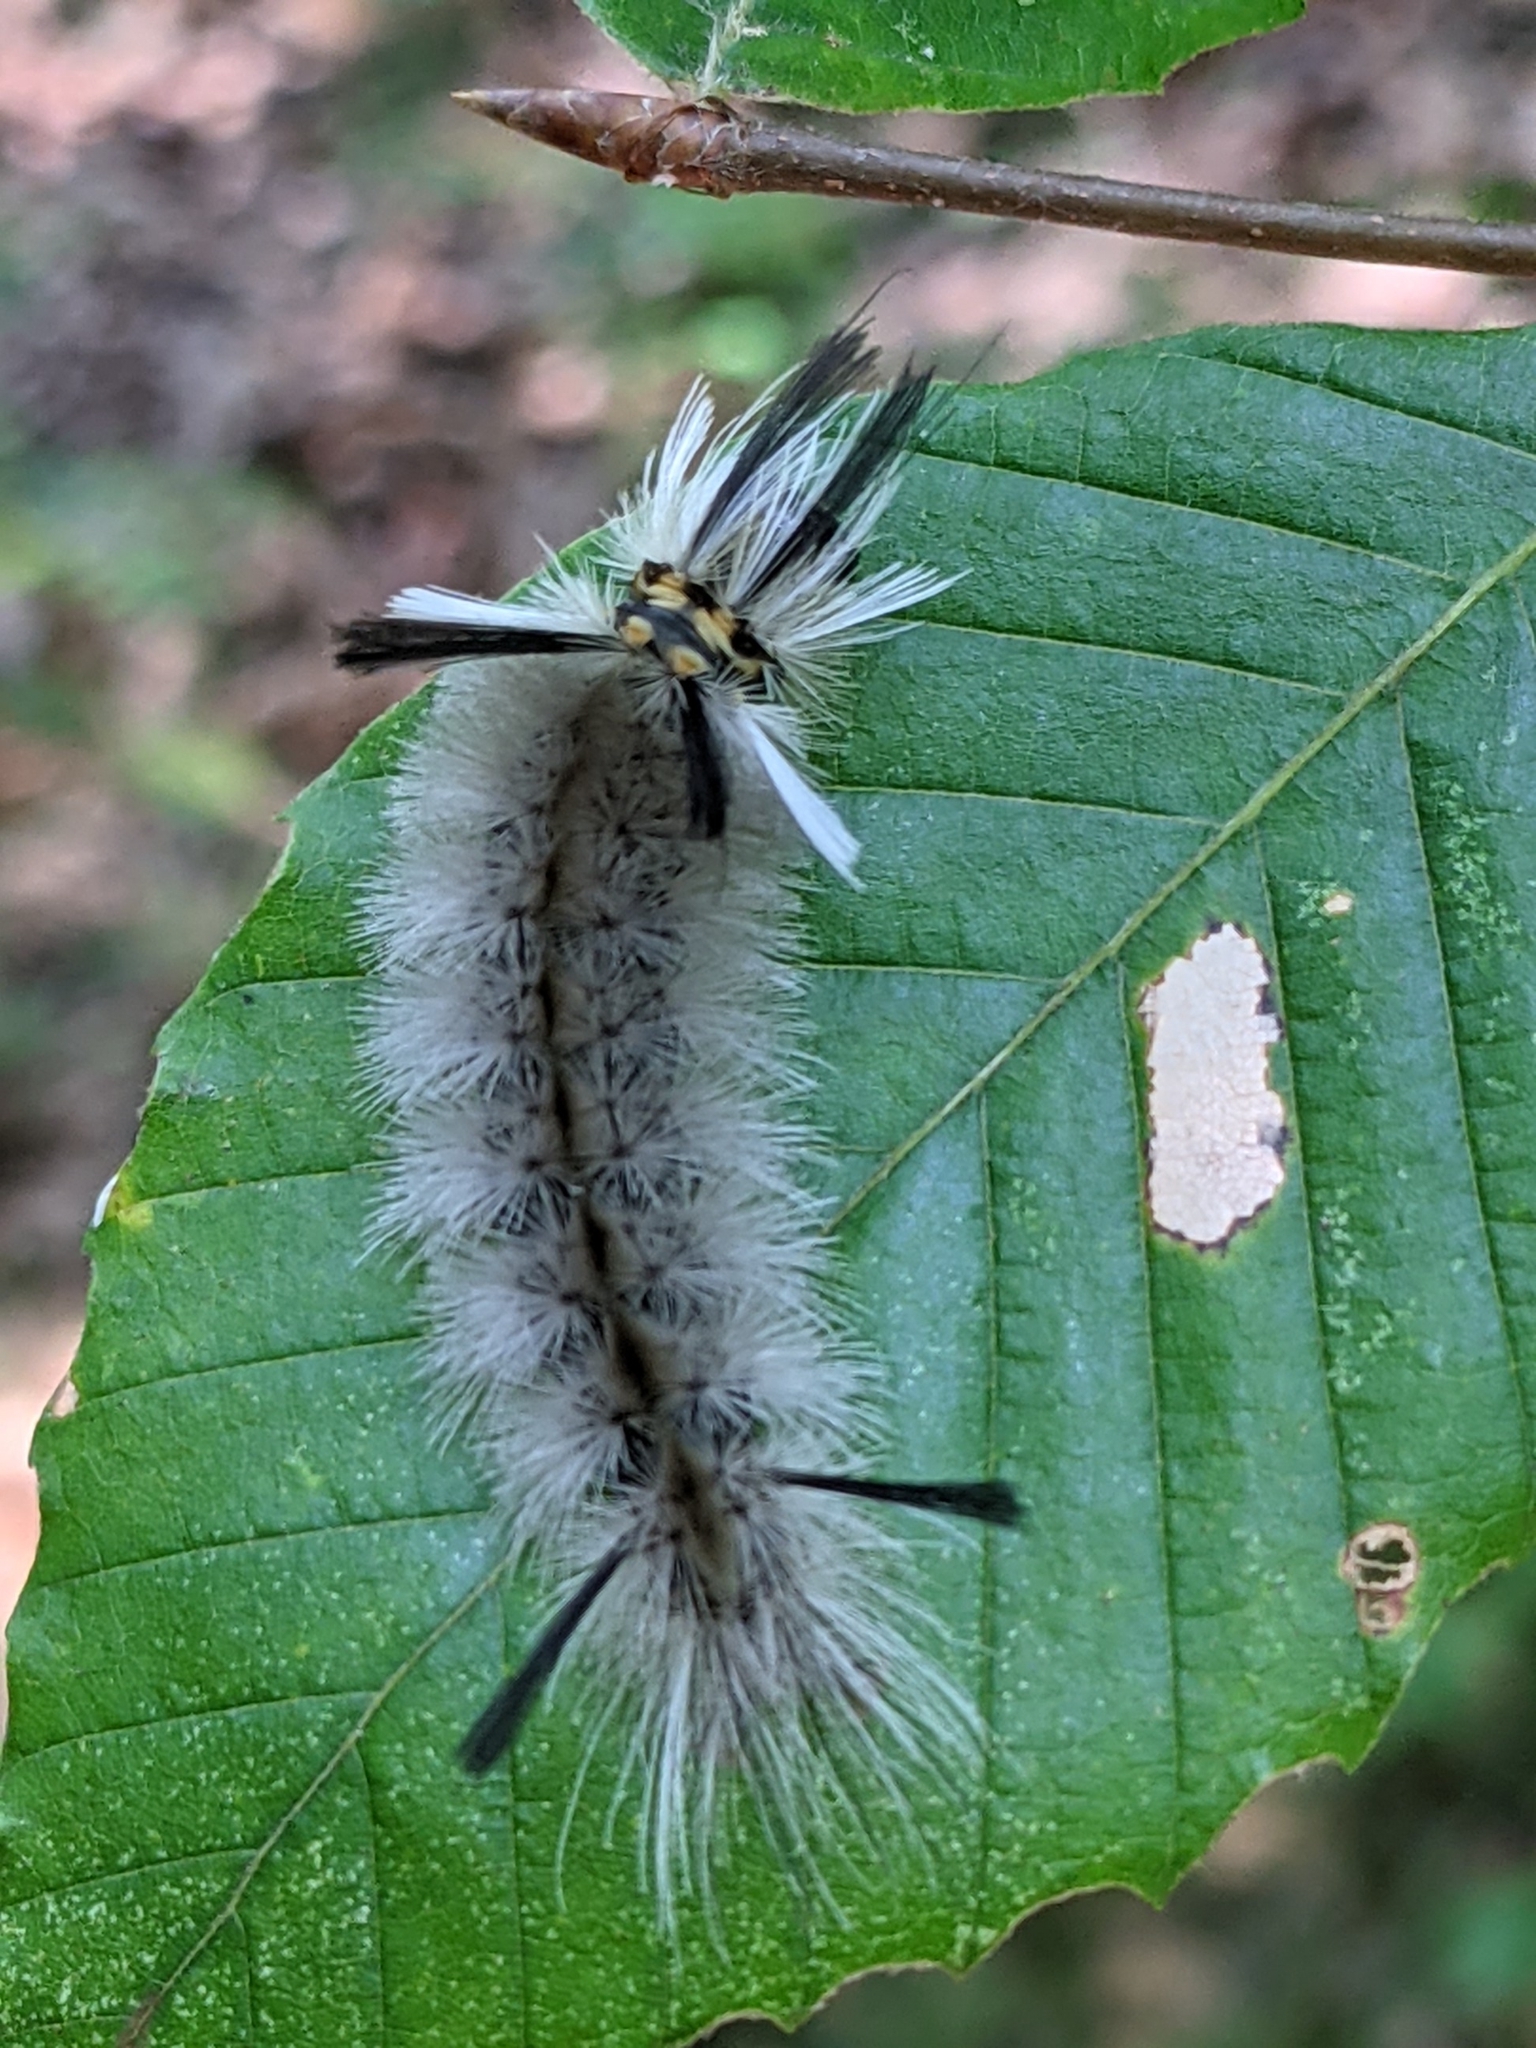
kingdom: Animalia
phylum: Arthropoda
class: Insecta
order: Lepidoptera
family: Erebidae
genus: Halysidota
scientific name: Halysidota tessellaris
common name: Banded tussock moth
